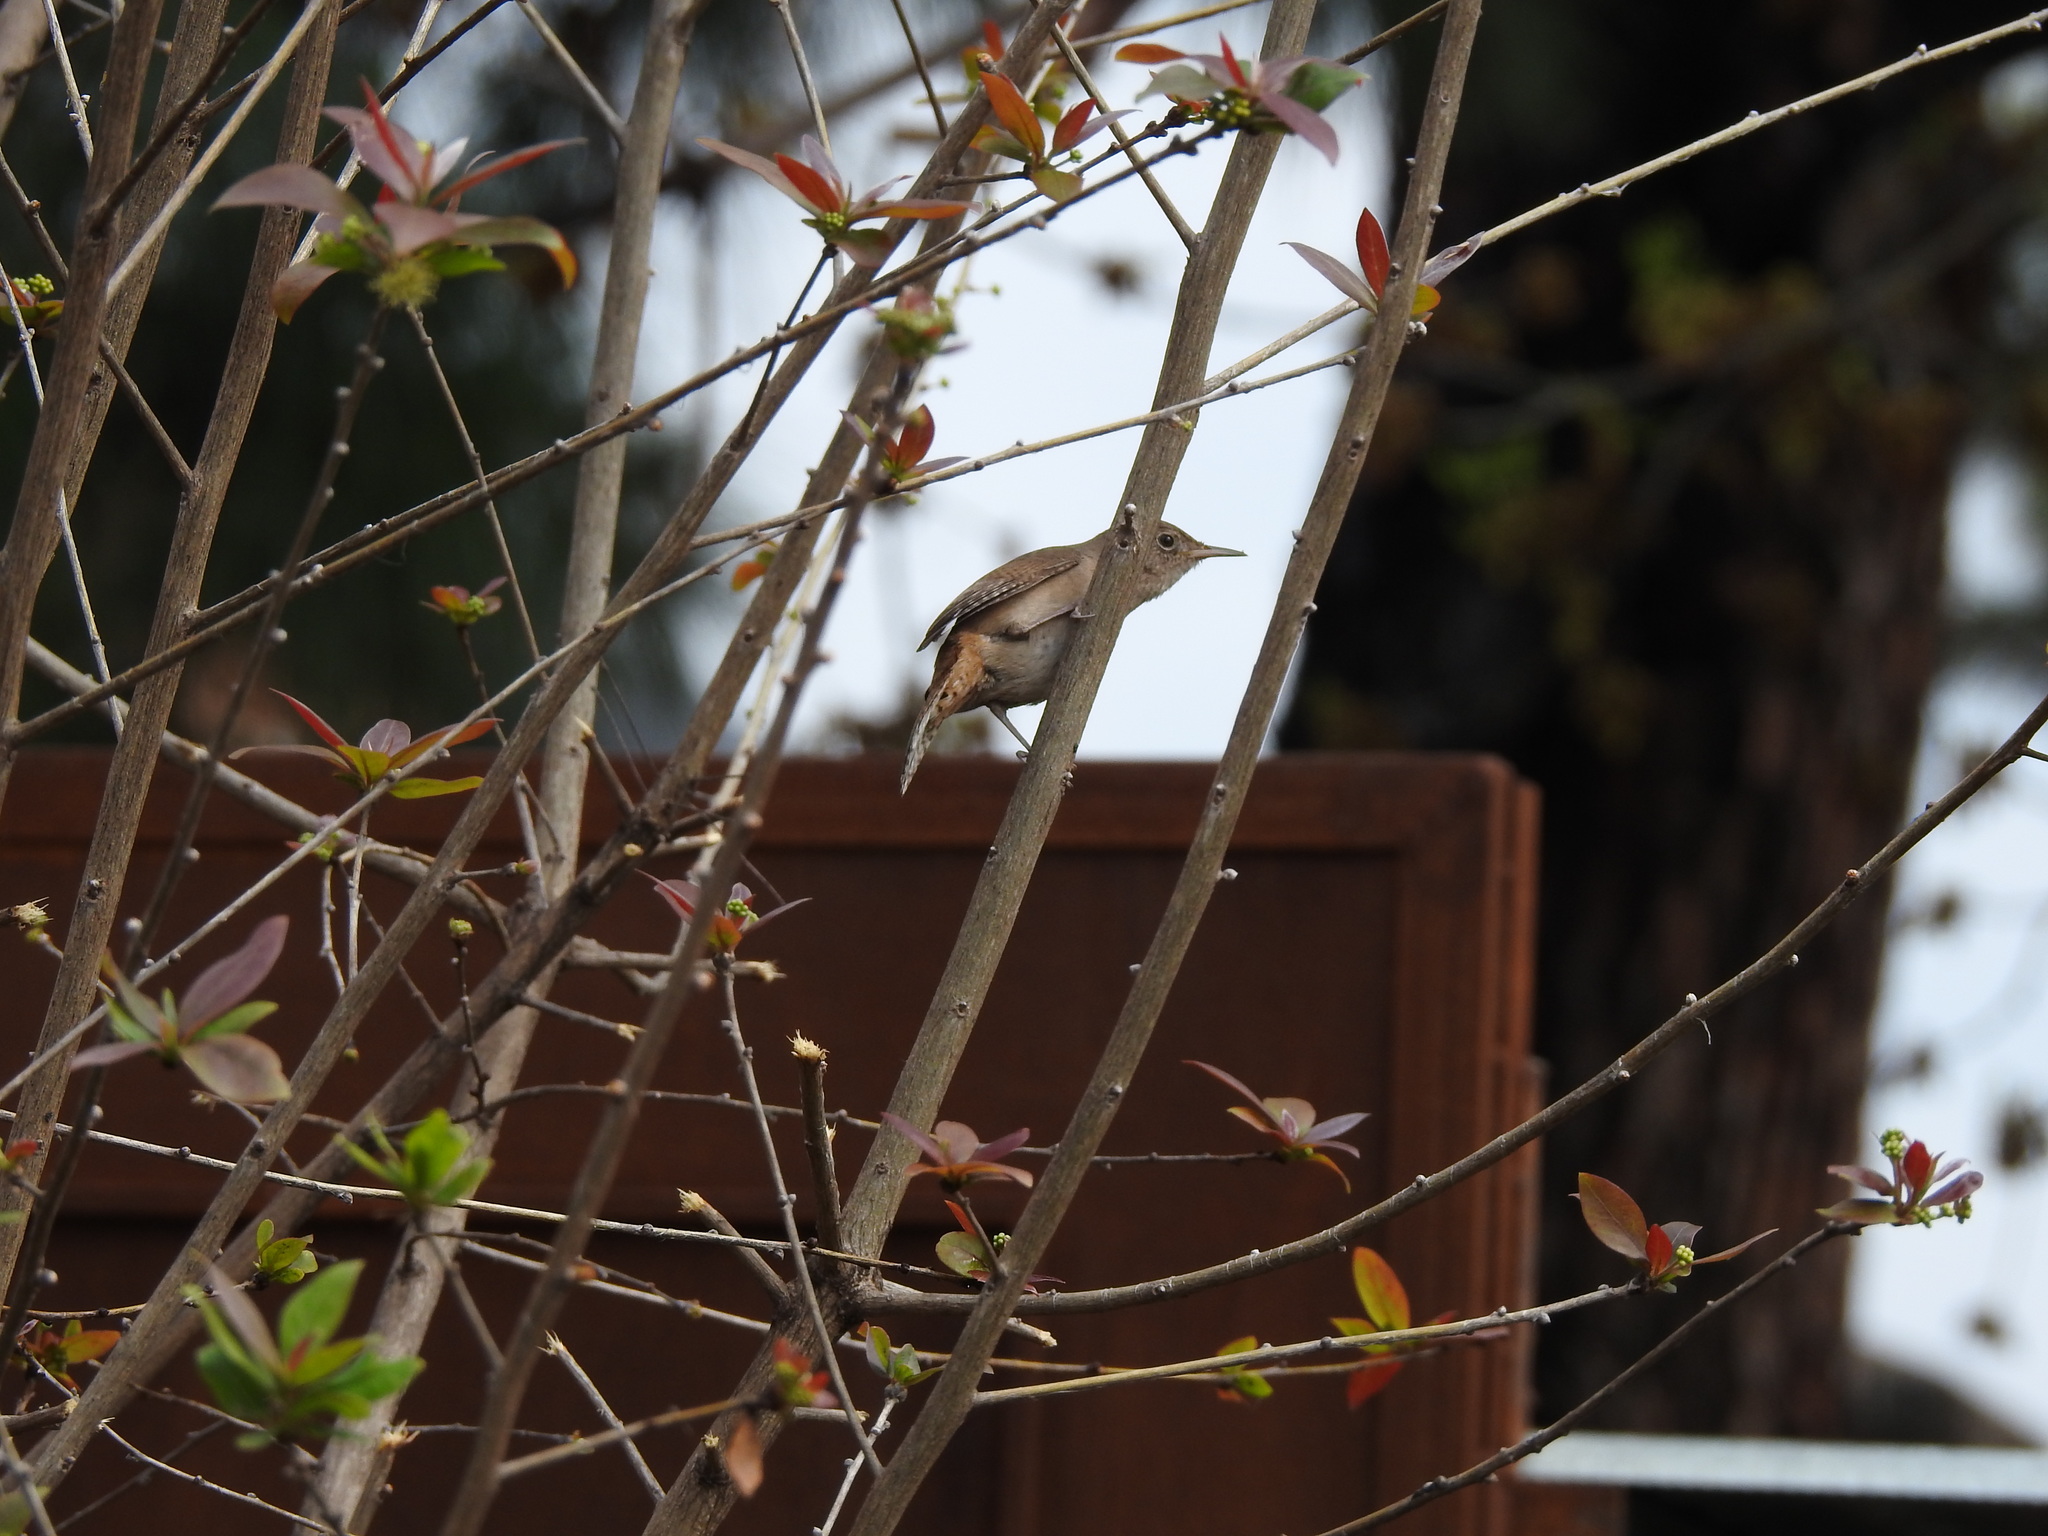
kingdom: Animalia
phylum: Chordata
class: Aves
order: Passeriformes
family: Troglodytidae
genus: Troglodytes
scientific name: Troglodytes aedon
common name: House wren
